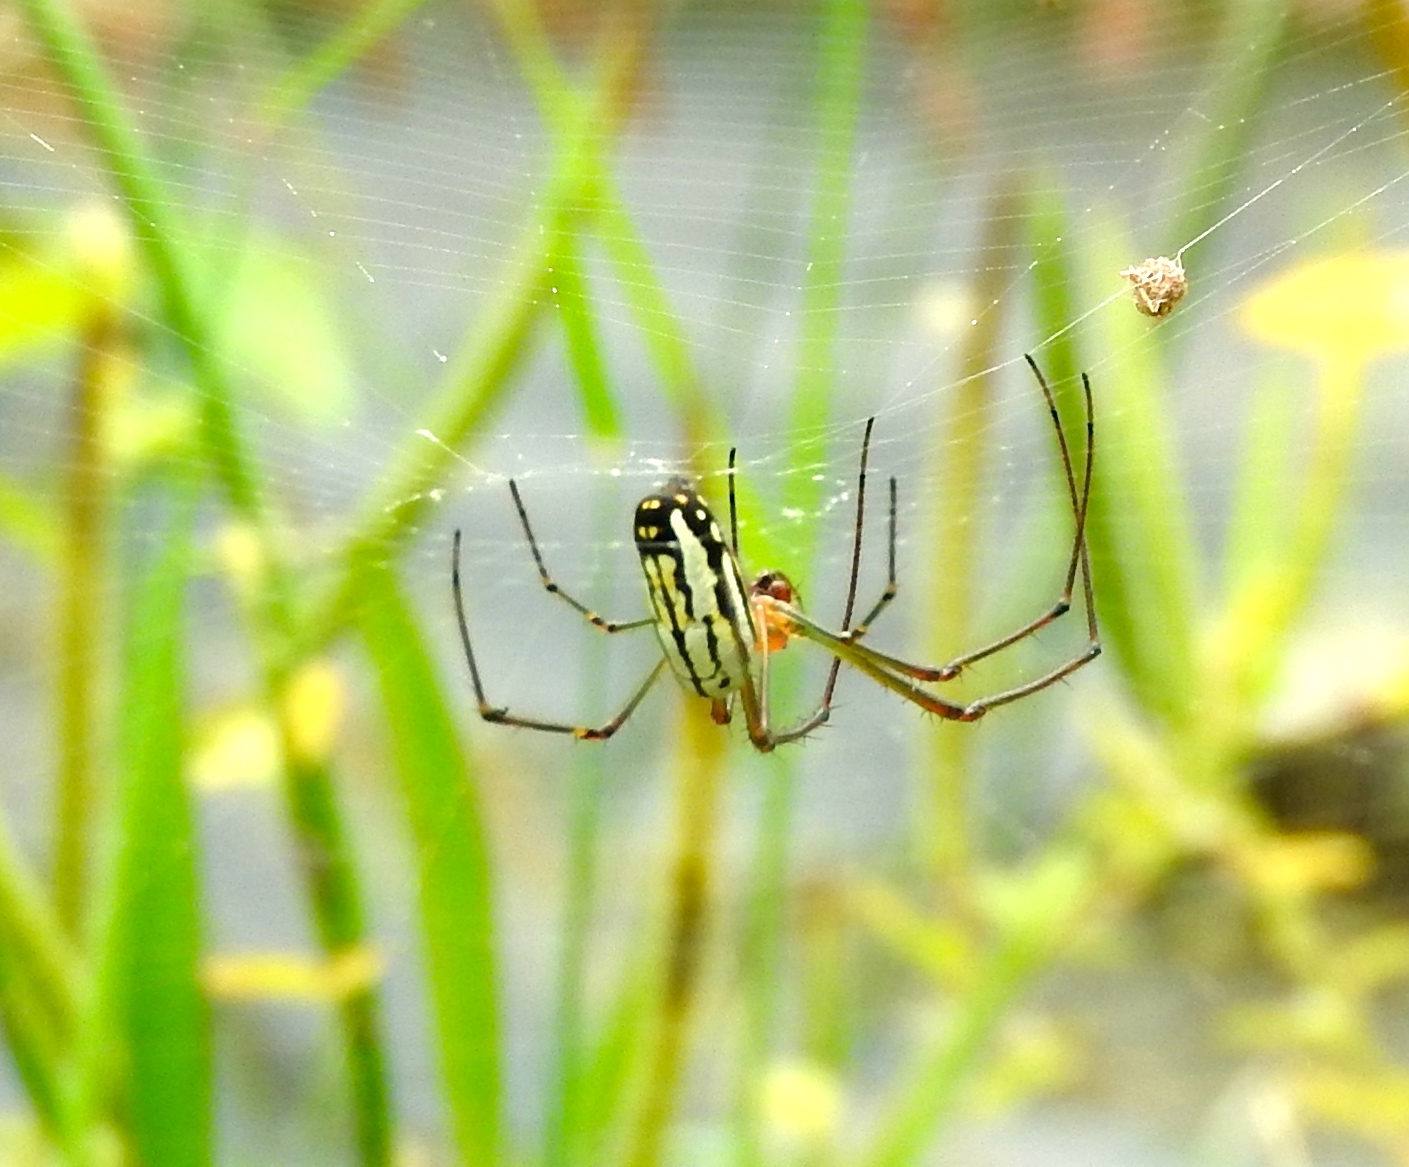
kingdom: Animalia
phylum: Arthropoda
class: Arachnida
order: Araneae
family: Tetragnathidae
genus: Leucauge
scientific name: Leucauge
